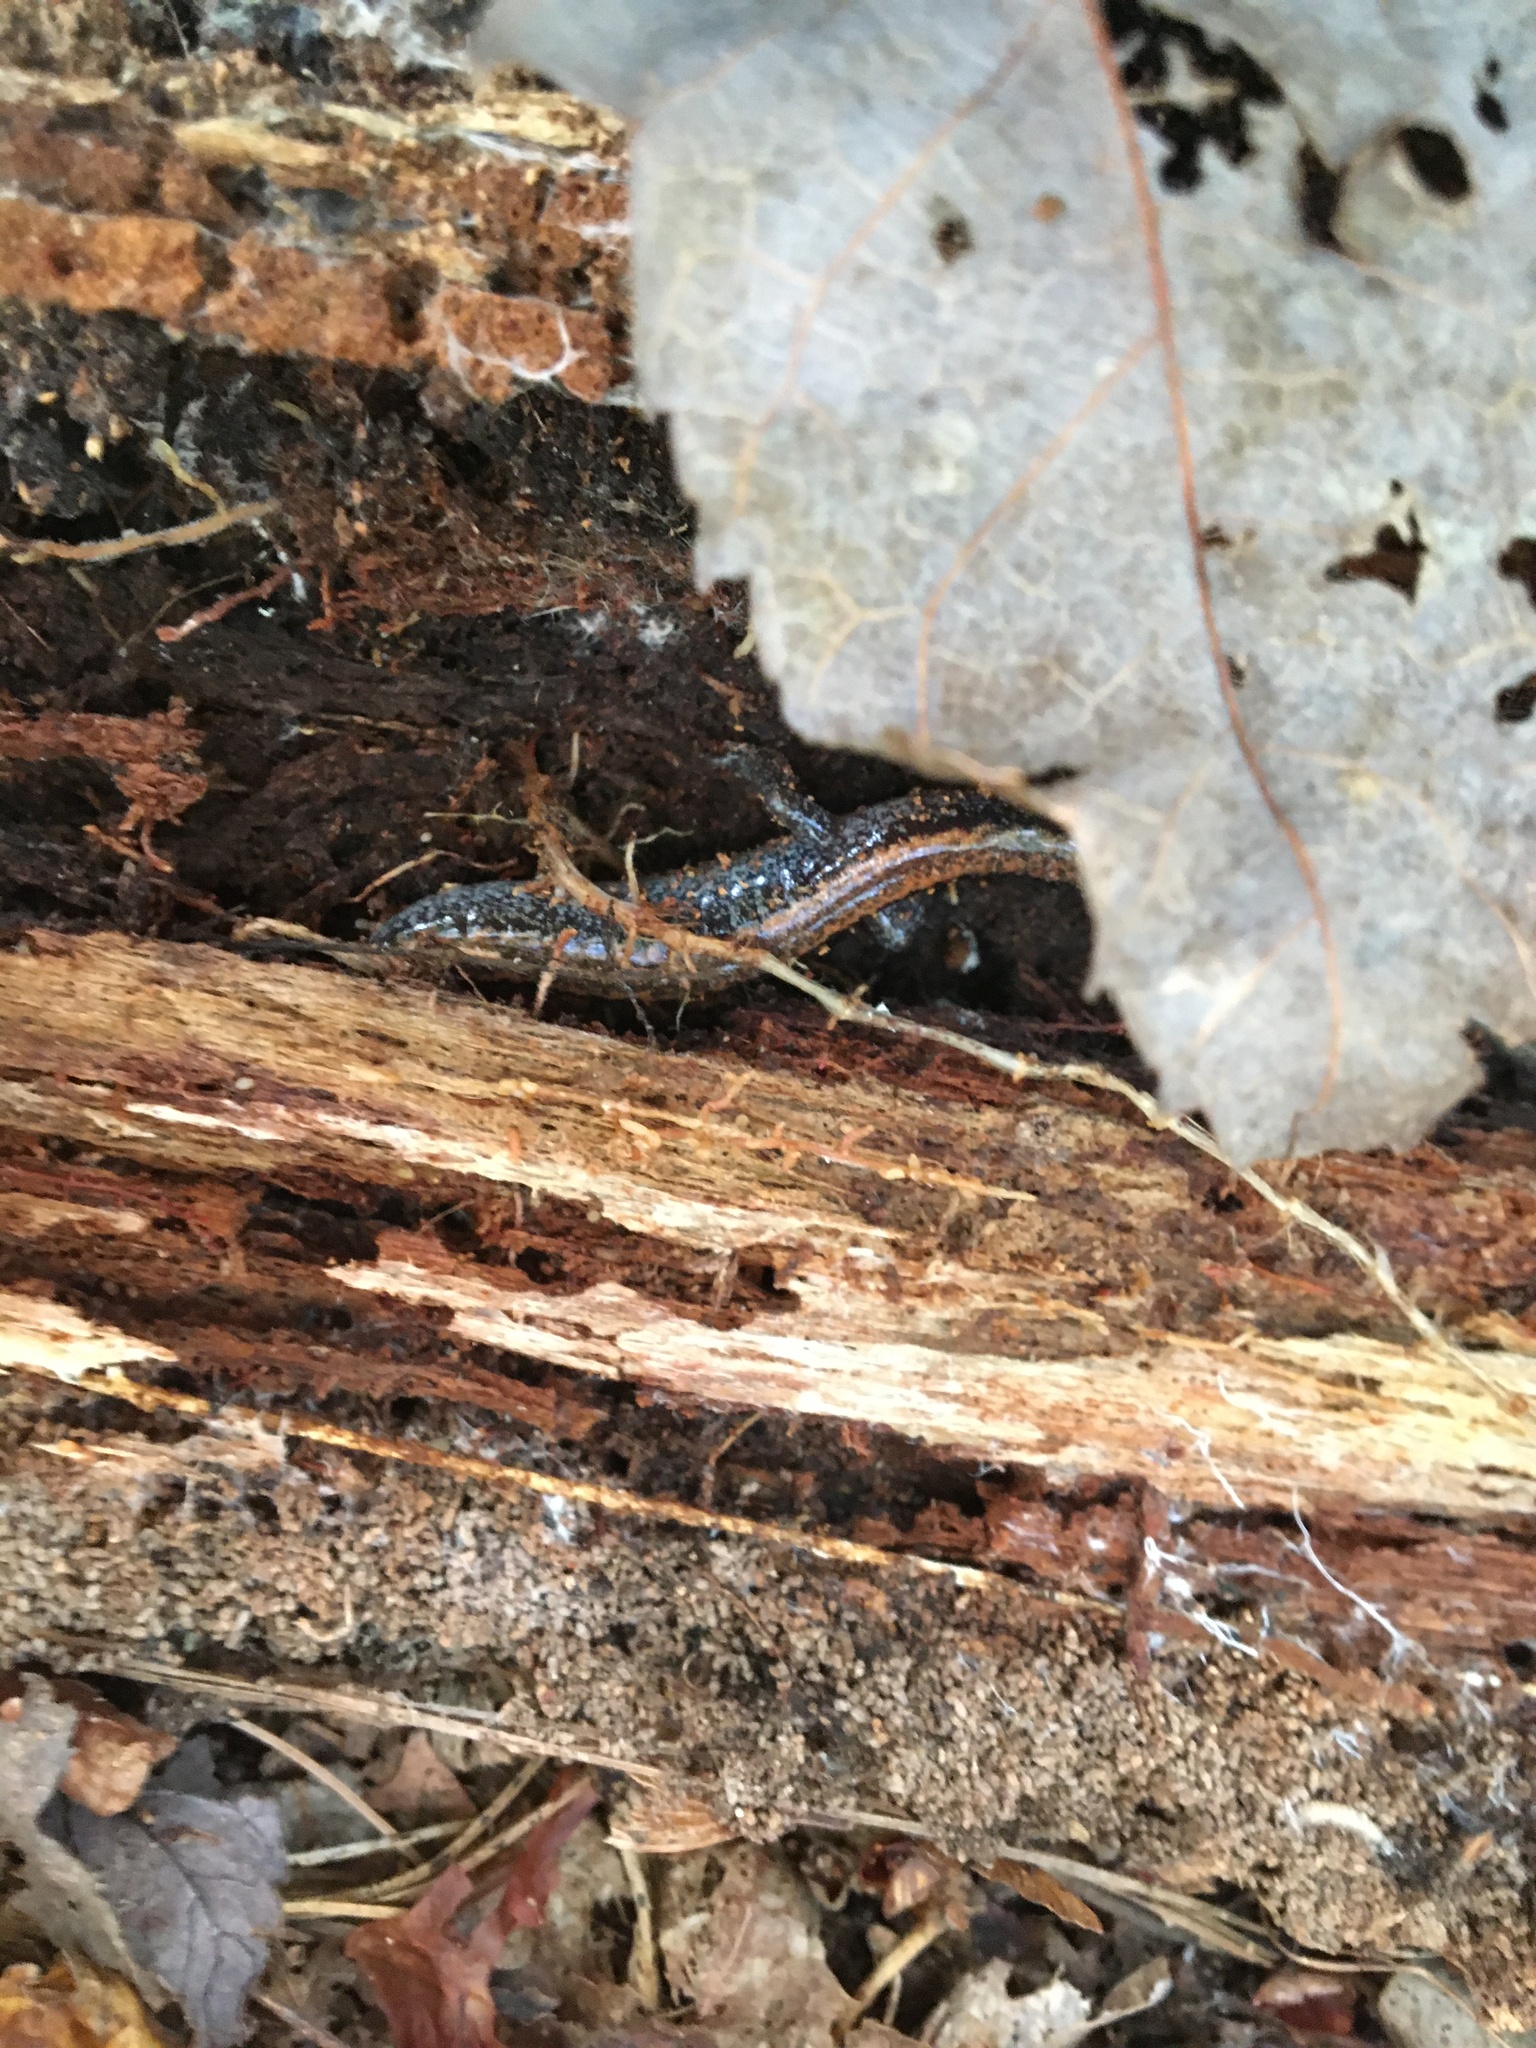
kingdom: Animalia
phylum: Chordata
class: Amphibia
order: Caudata
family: Plethodontidae
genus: Plethodon
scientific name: Plethodon cinereus
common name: Redback salamander
